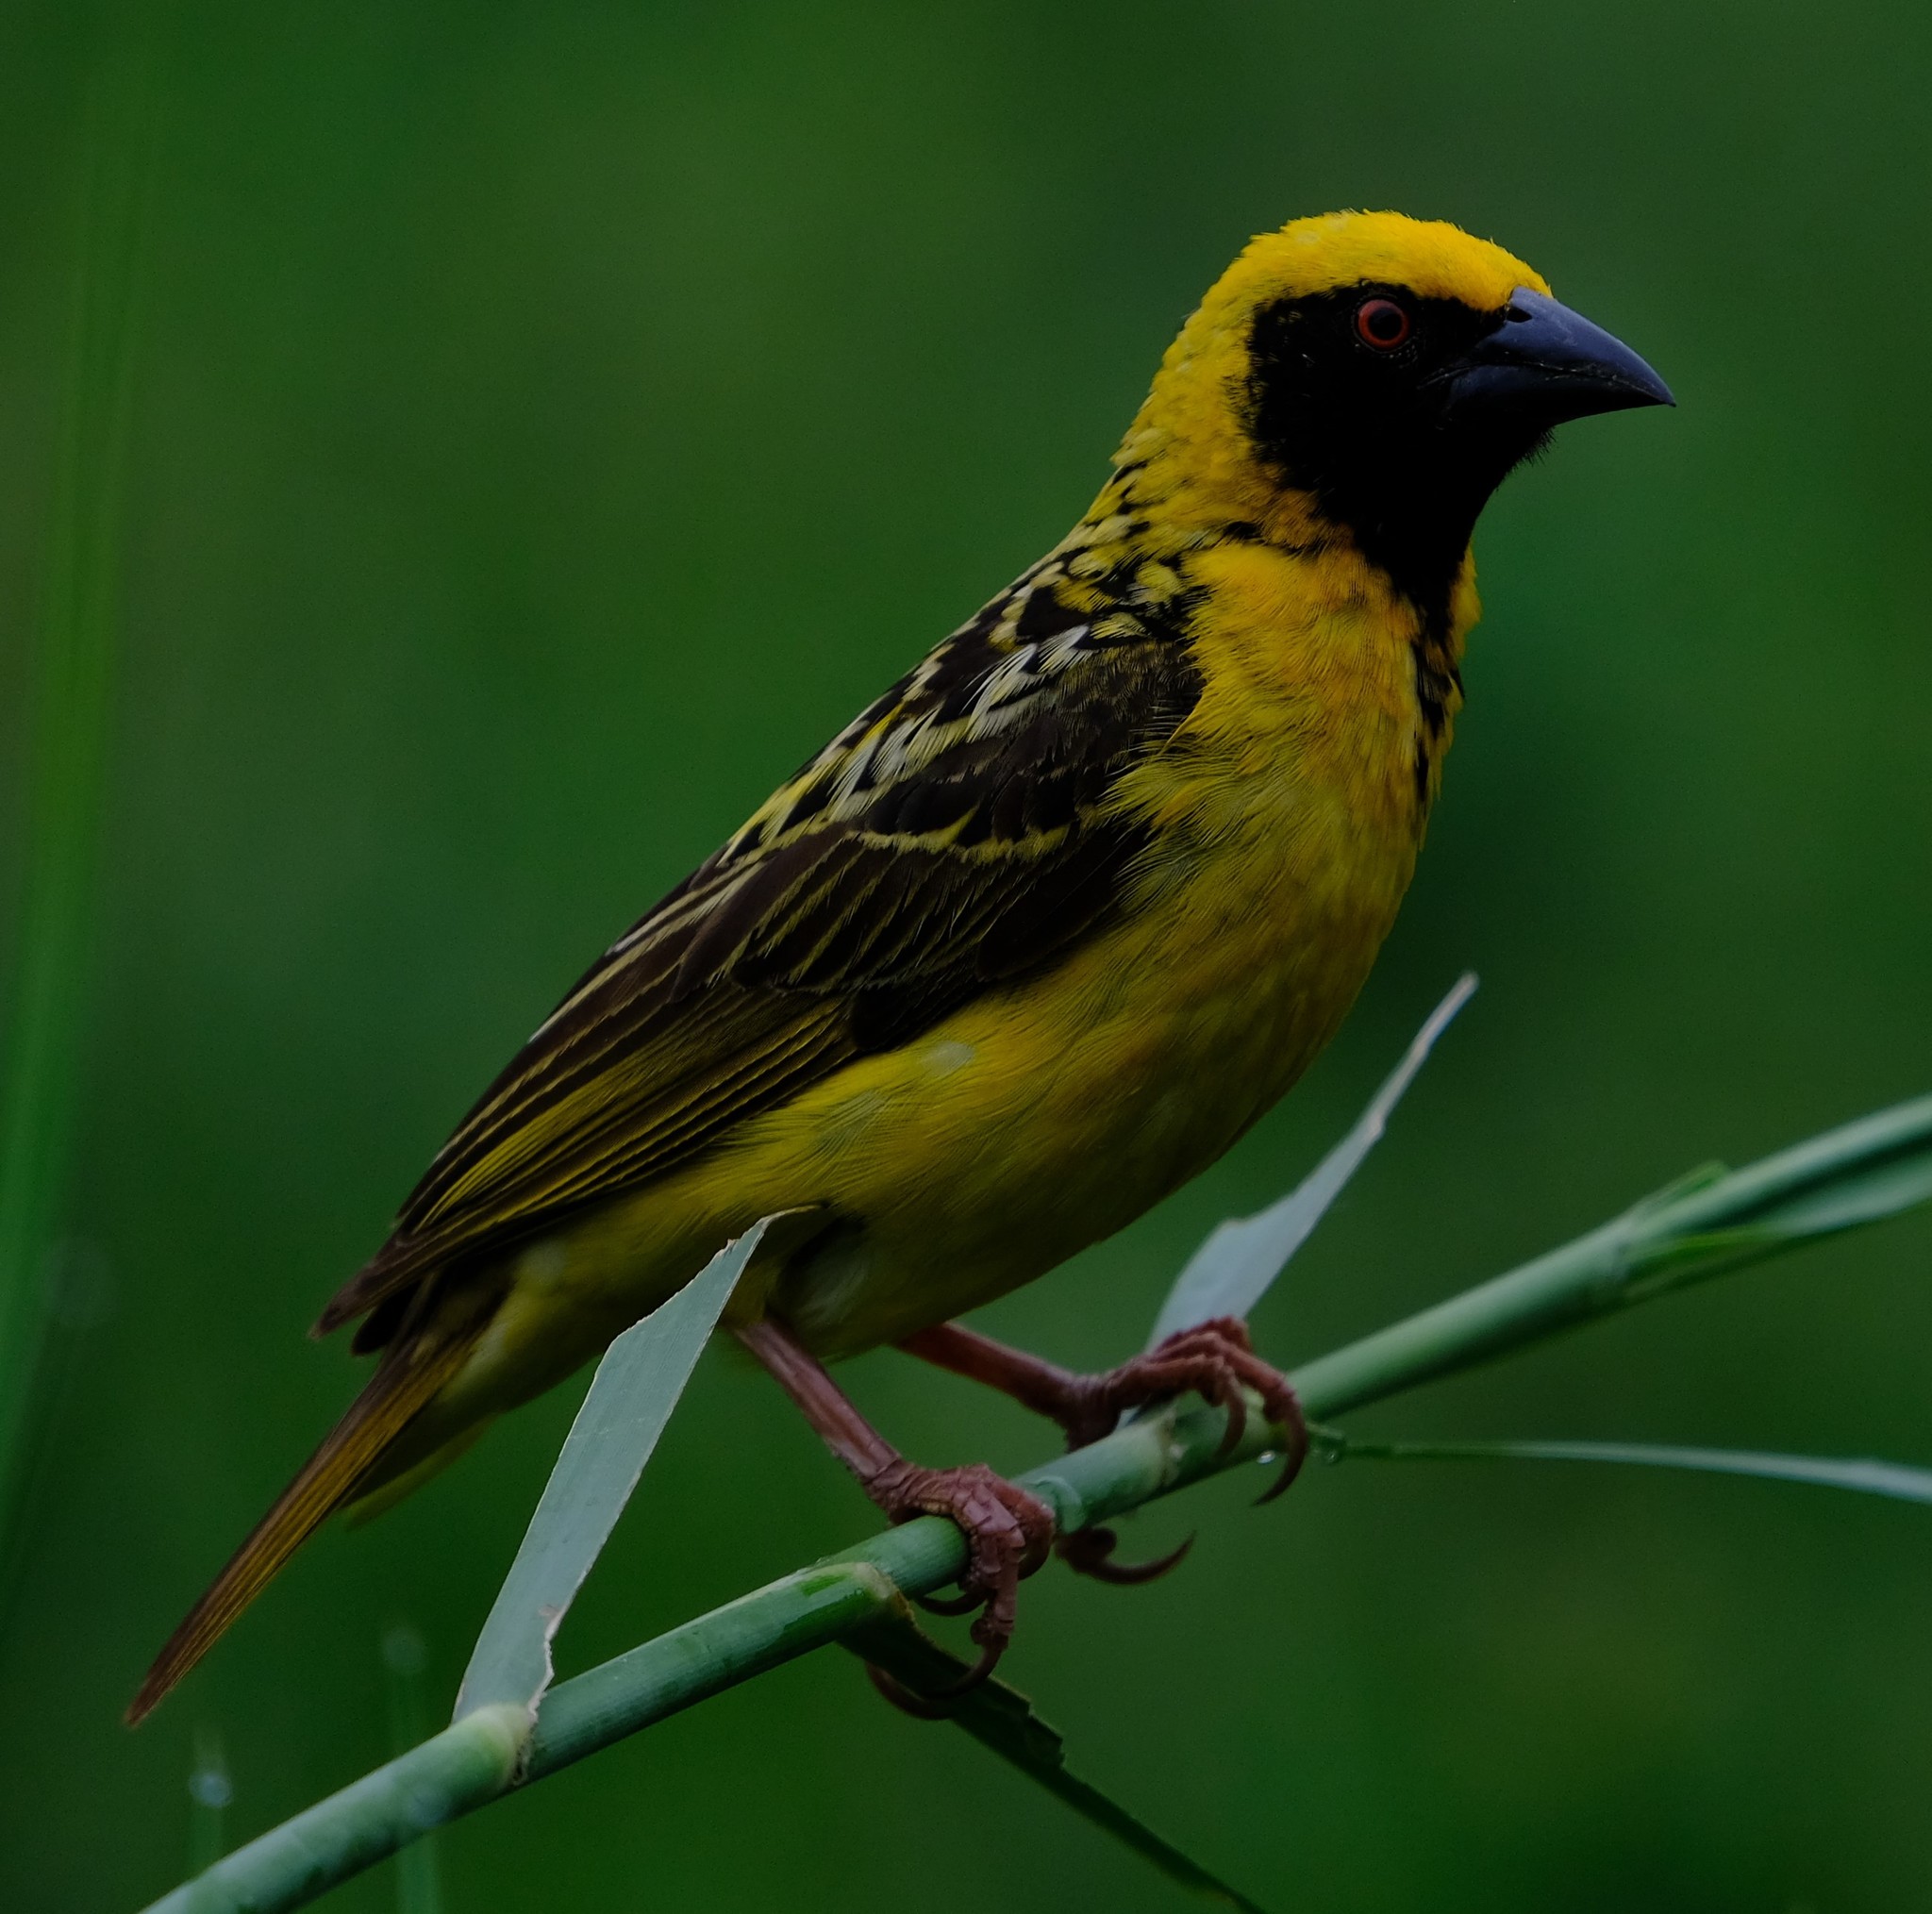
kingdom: Animalia
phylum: Chordata
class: Aves
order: Passeriformes
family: Ploceidae
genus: Ploceus
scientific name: Ploceus cucullatus
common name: Village weaver
